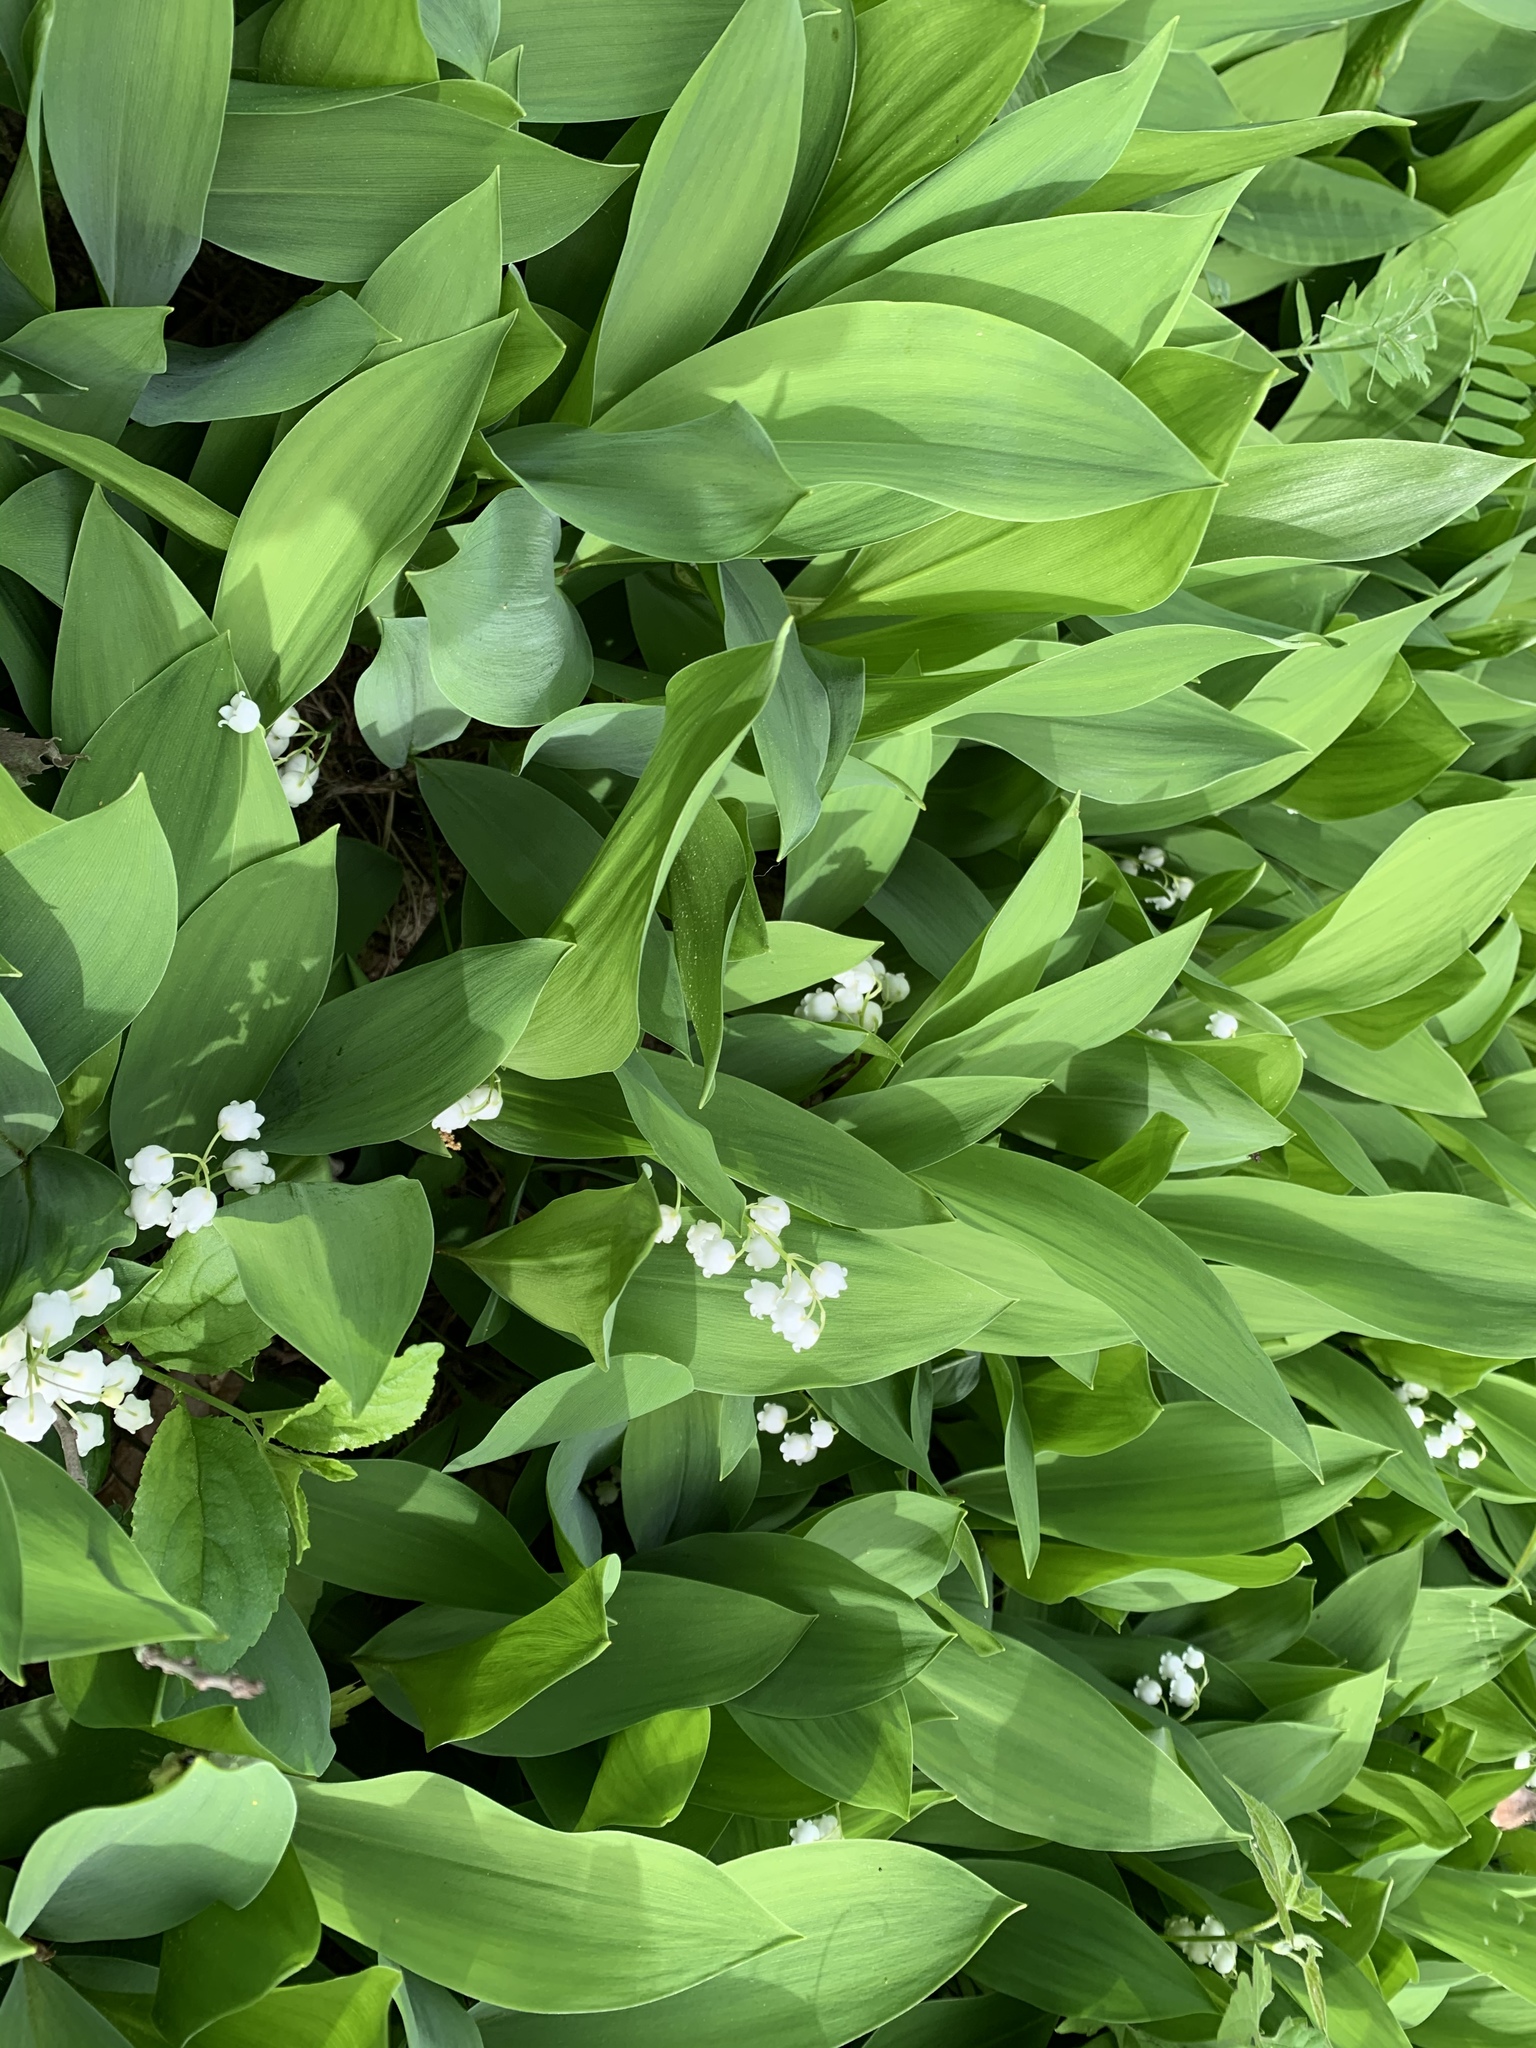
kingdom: Plantae
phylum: Tracheophyta
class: Liliopsida
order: Asparagales
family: Asparagaceae
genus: Convallaria
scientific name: Convallaria majalis
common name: Lily-of-the-valley
